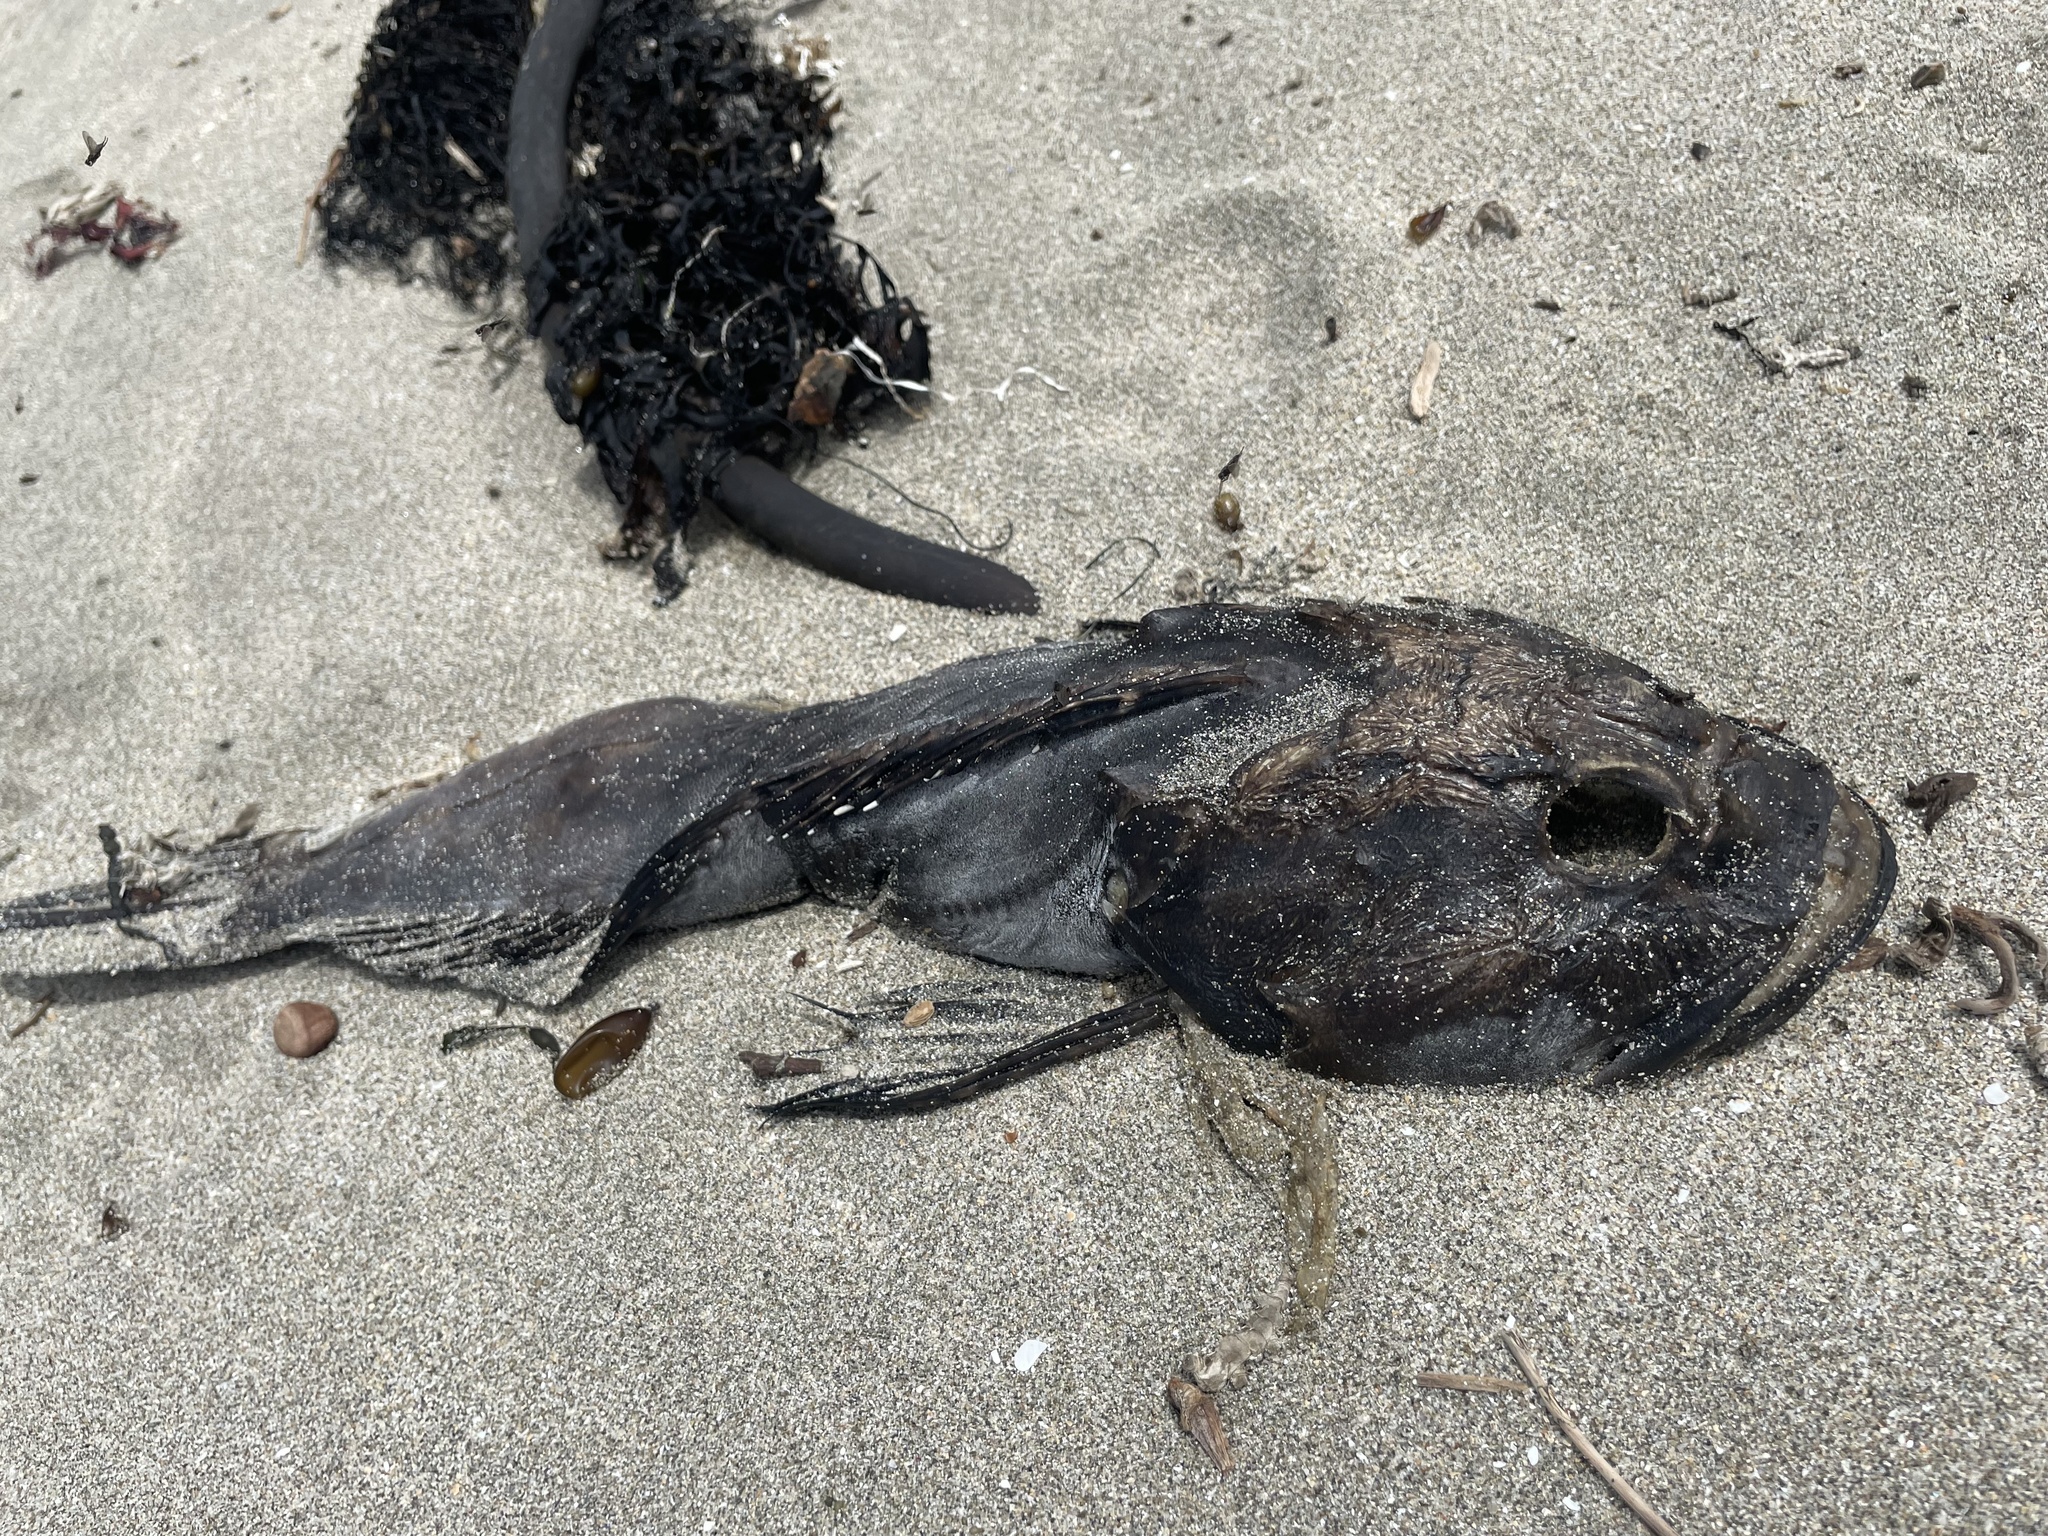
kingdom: Animalia
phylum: Chordata
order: Scorpaeniformes
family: Cottidae
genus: Scorpaenichthys
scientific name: Scorpaenichthys marmoratus
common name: Cabezon
